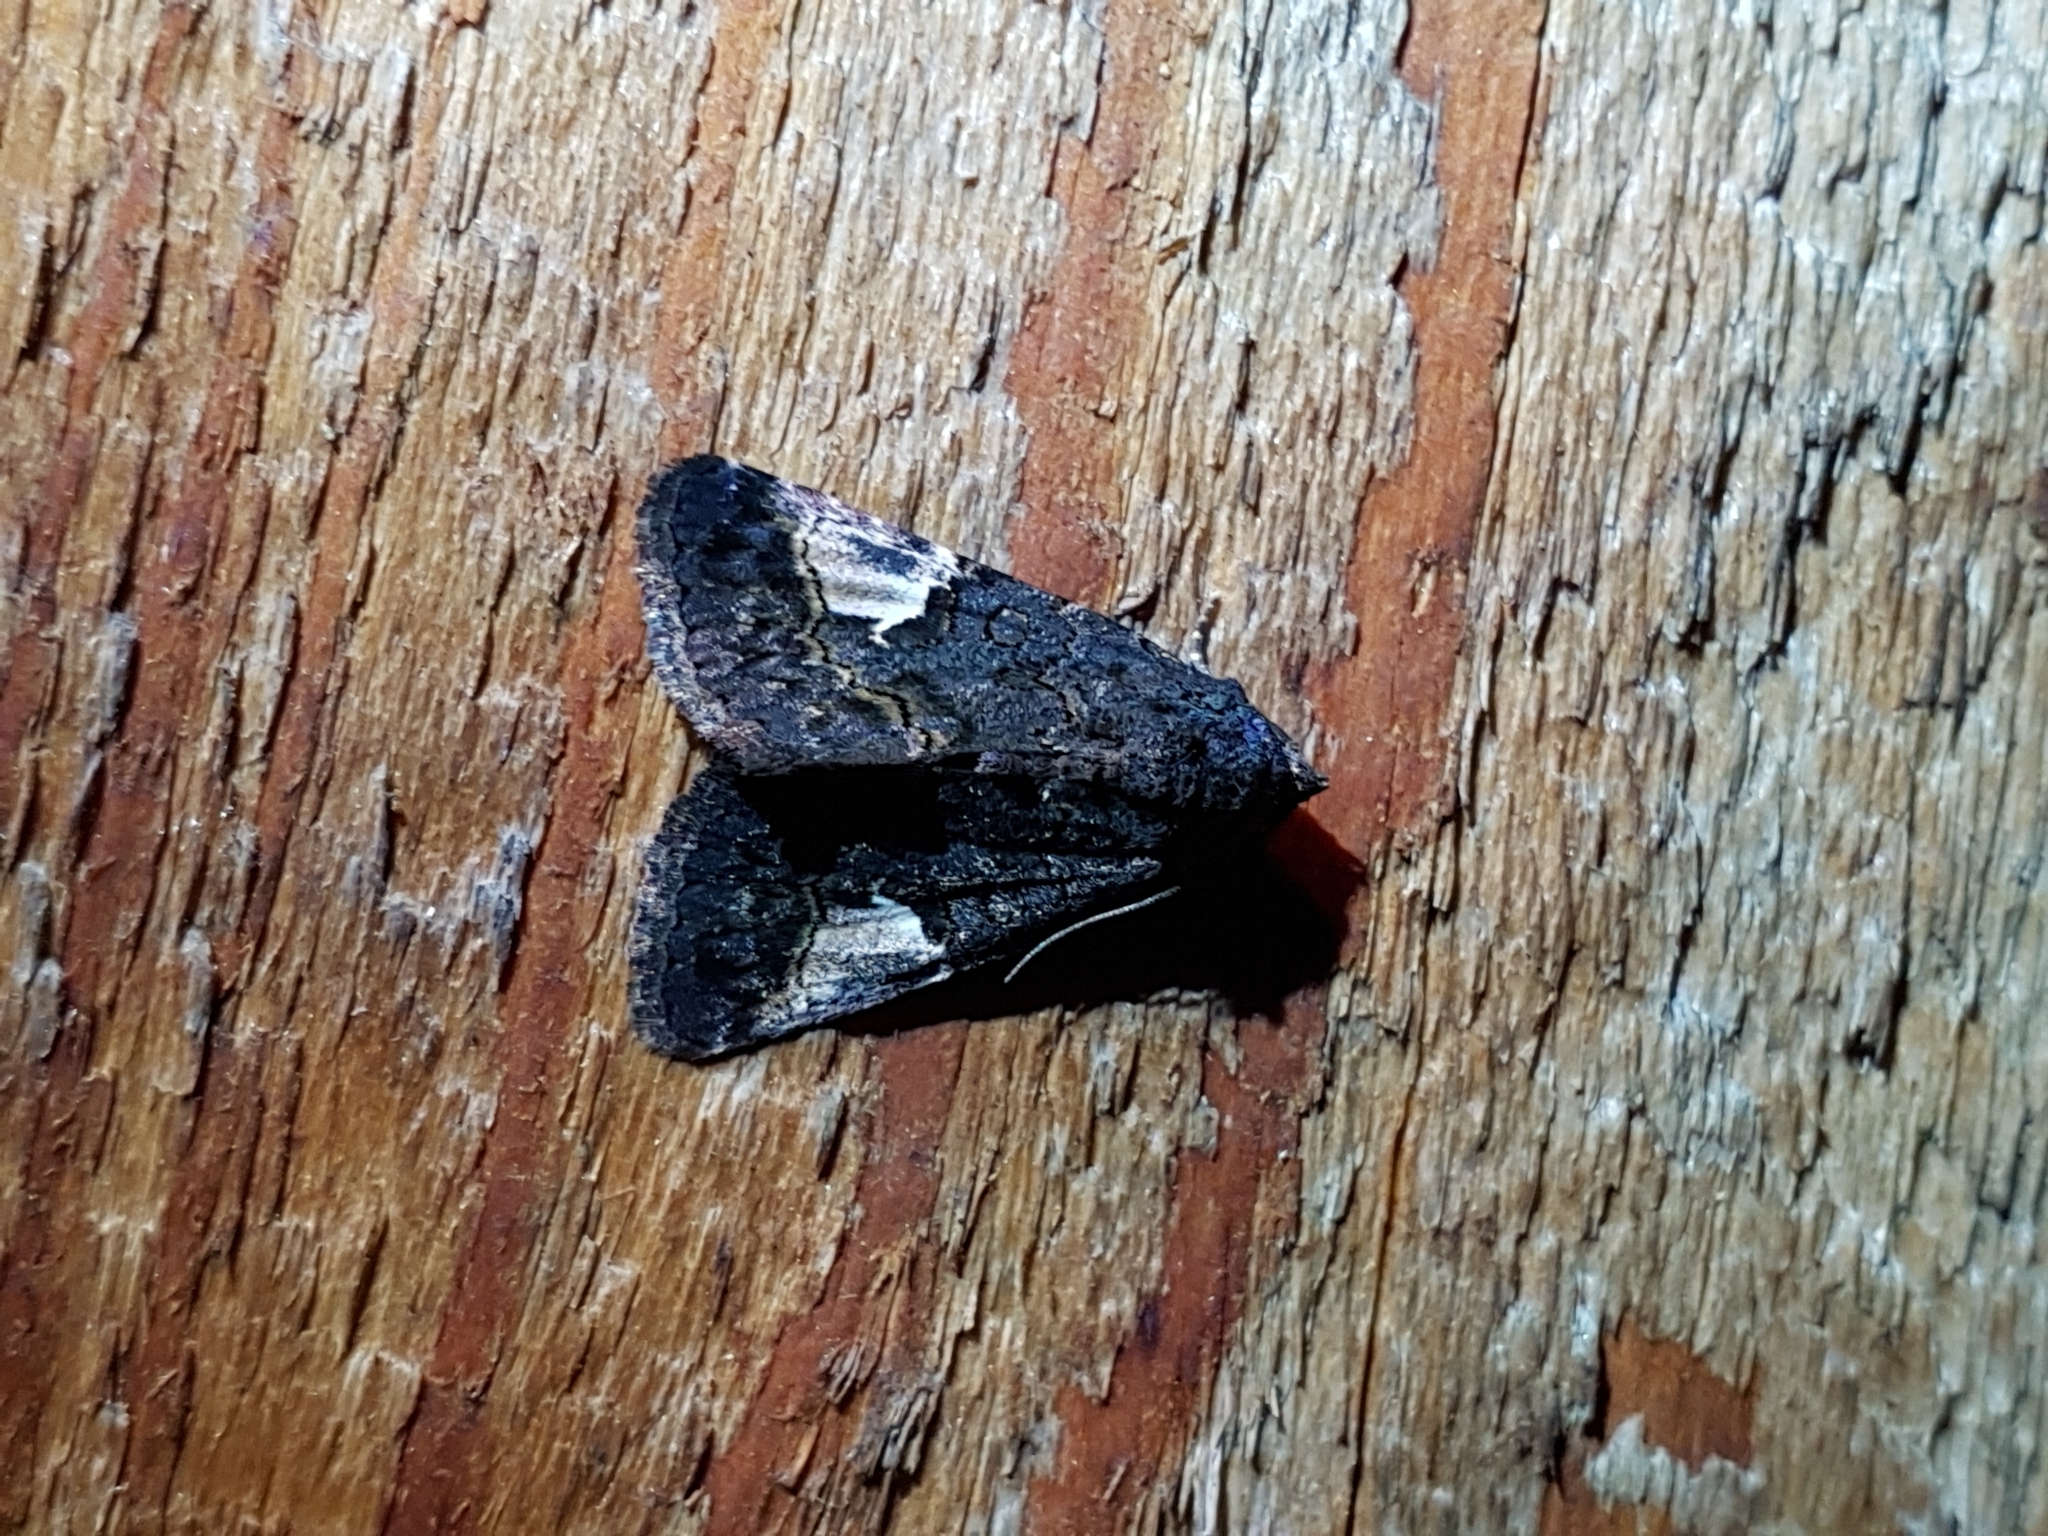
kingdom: Animalia
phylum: Arthropoda
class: Insecta
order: Lepidoptera
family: Noctuidae
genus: Aedia
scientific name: Aedia funesta
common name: The druid
